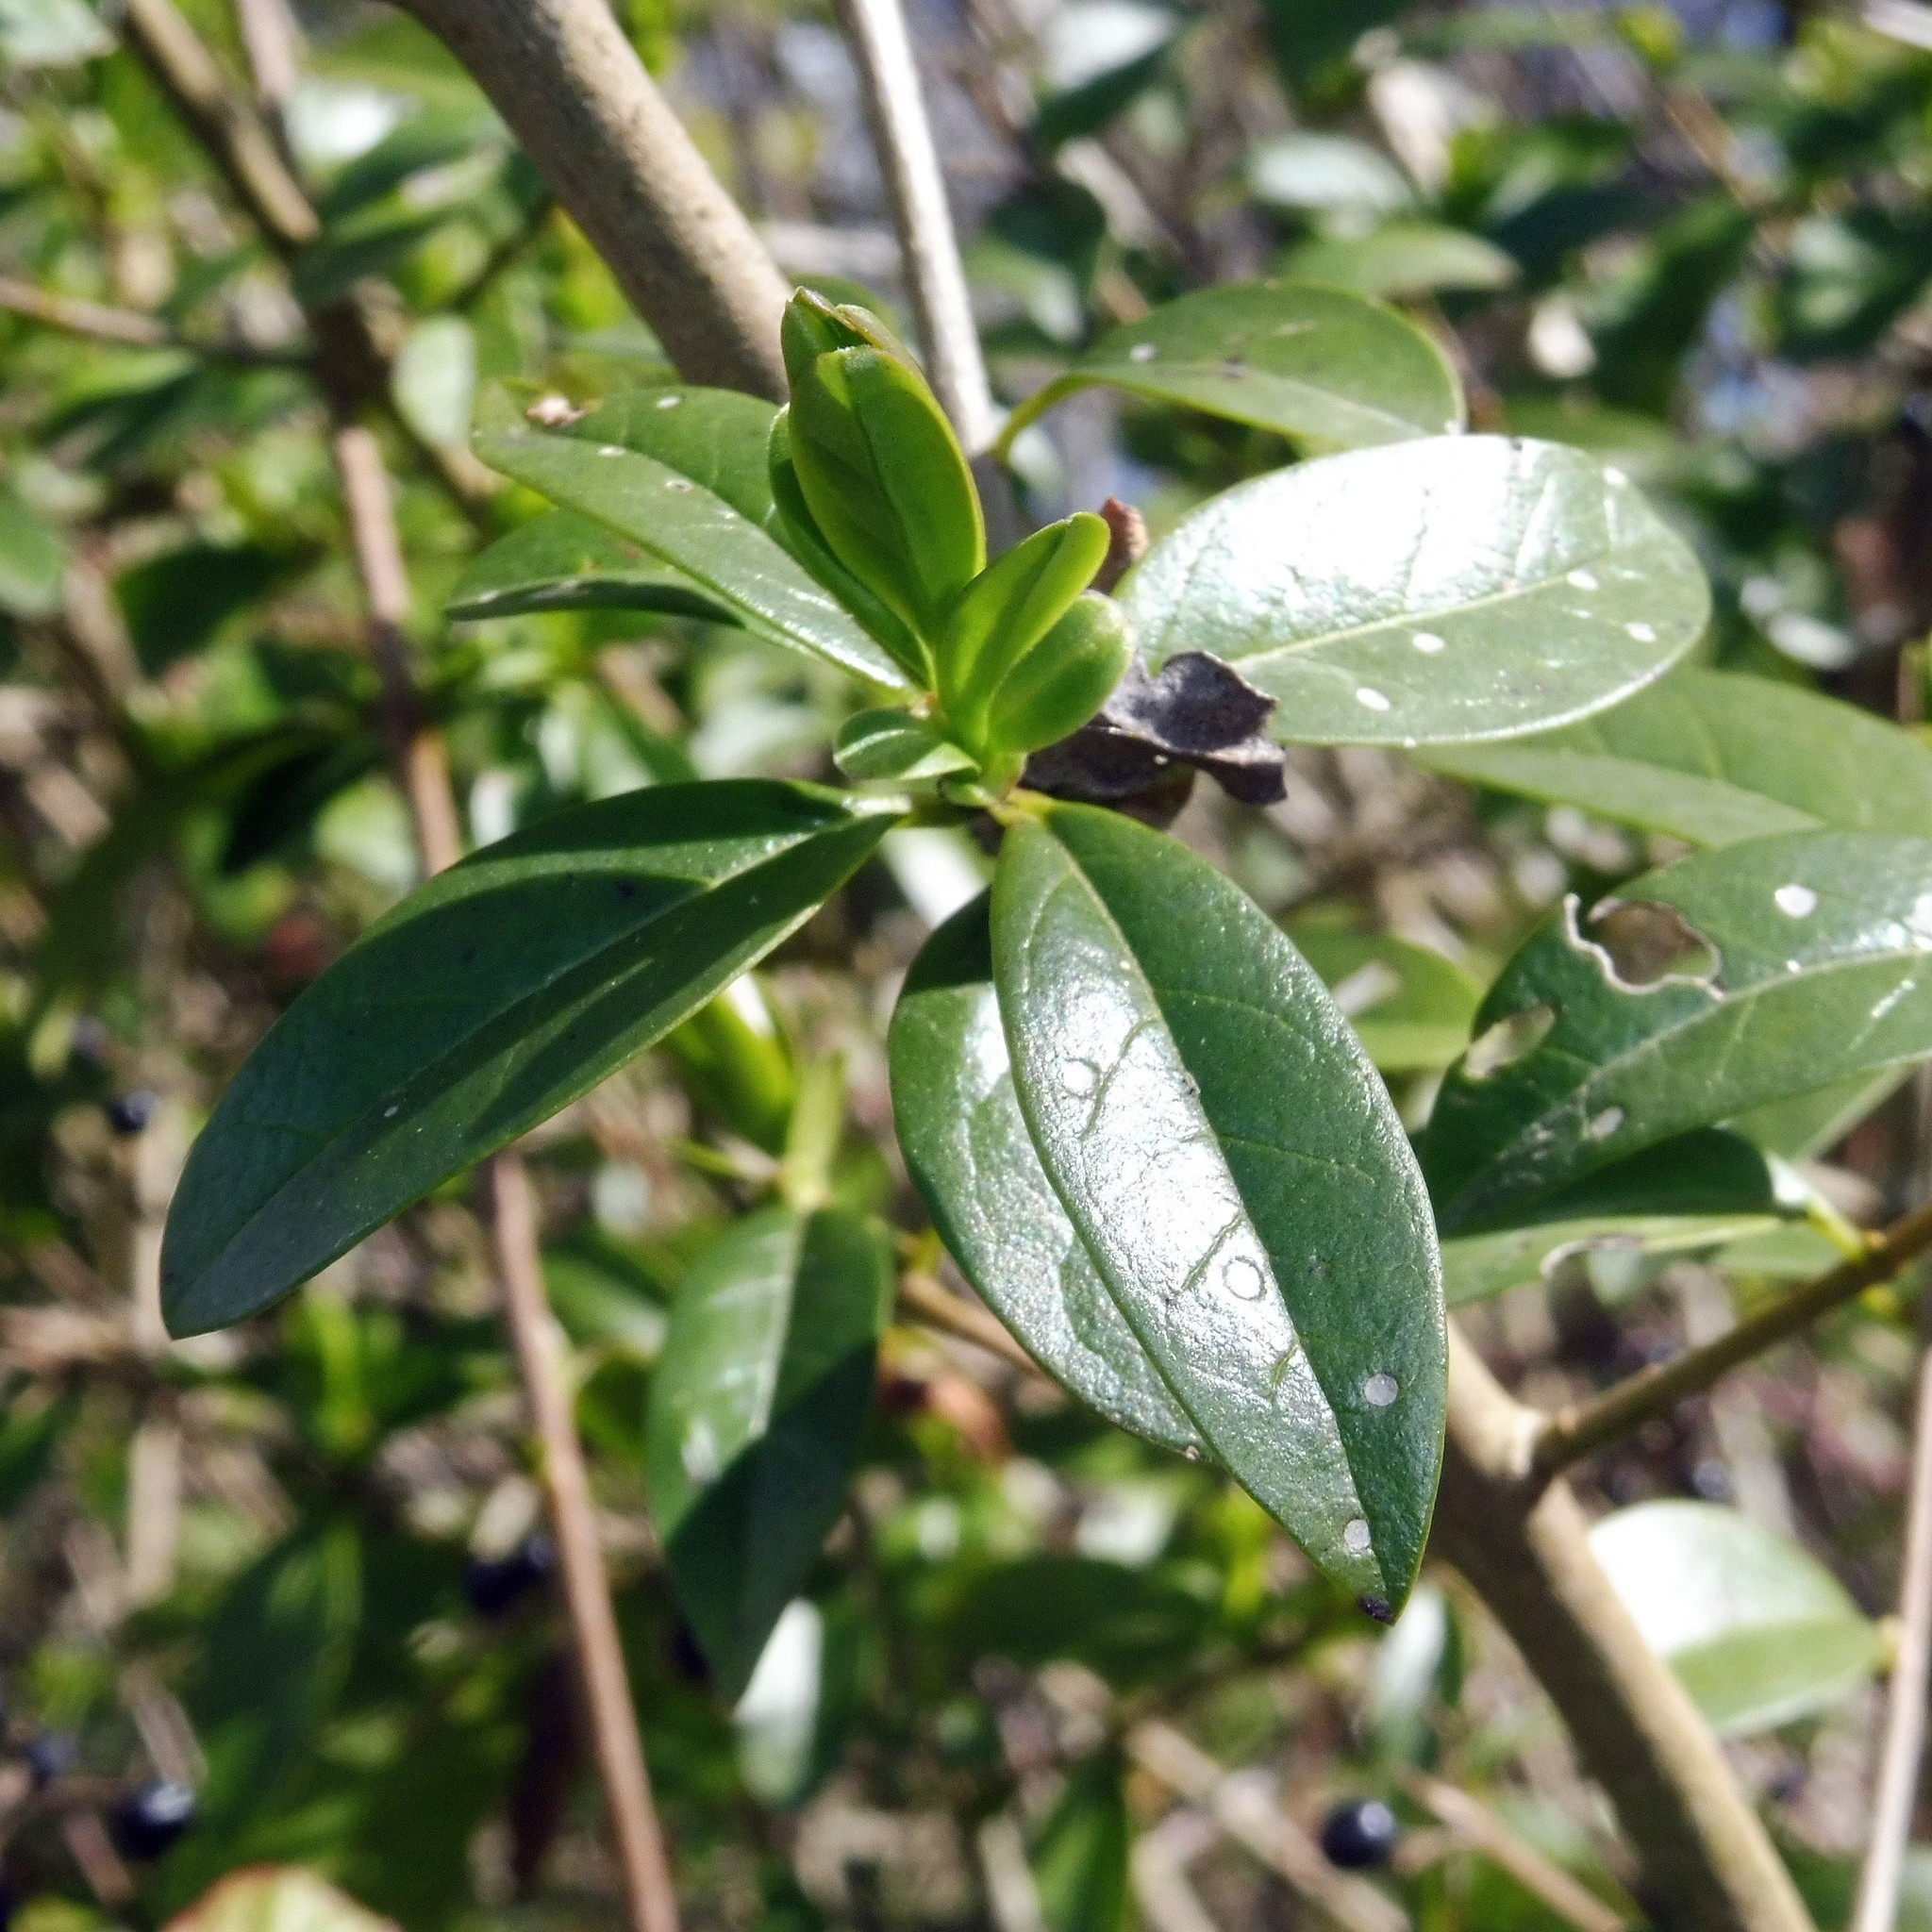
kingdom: Plantae
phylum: Tracheophyta
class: Magnoliopsida
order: Lamiales
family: Oleaceae
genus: Ligustrum
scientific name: Ligustrum vulgare
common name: Wild privet
